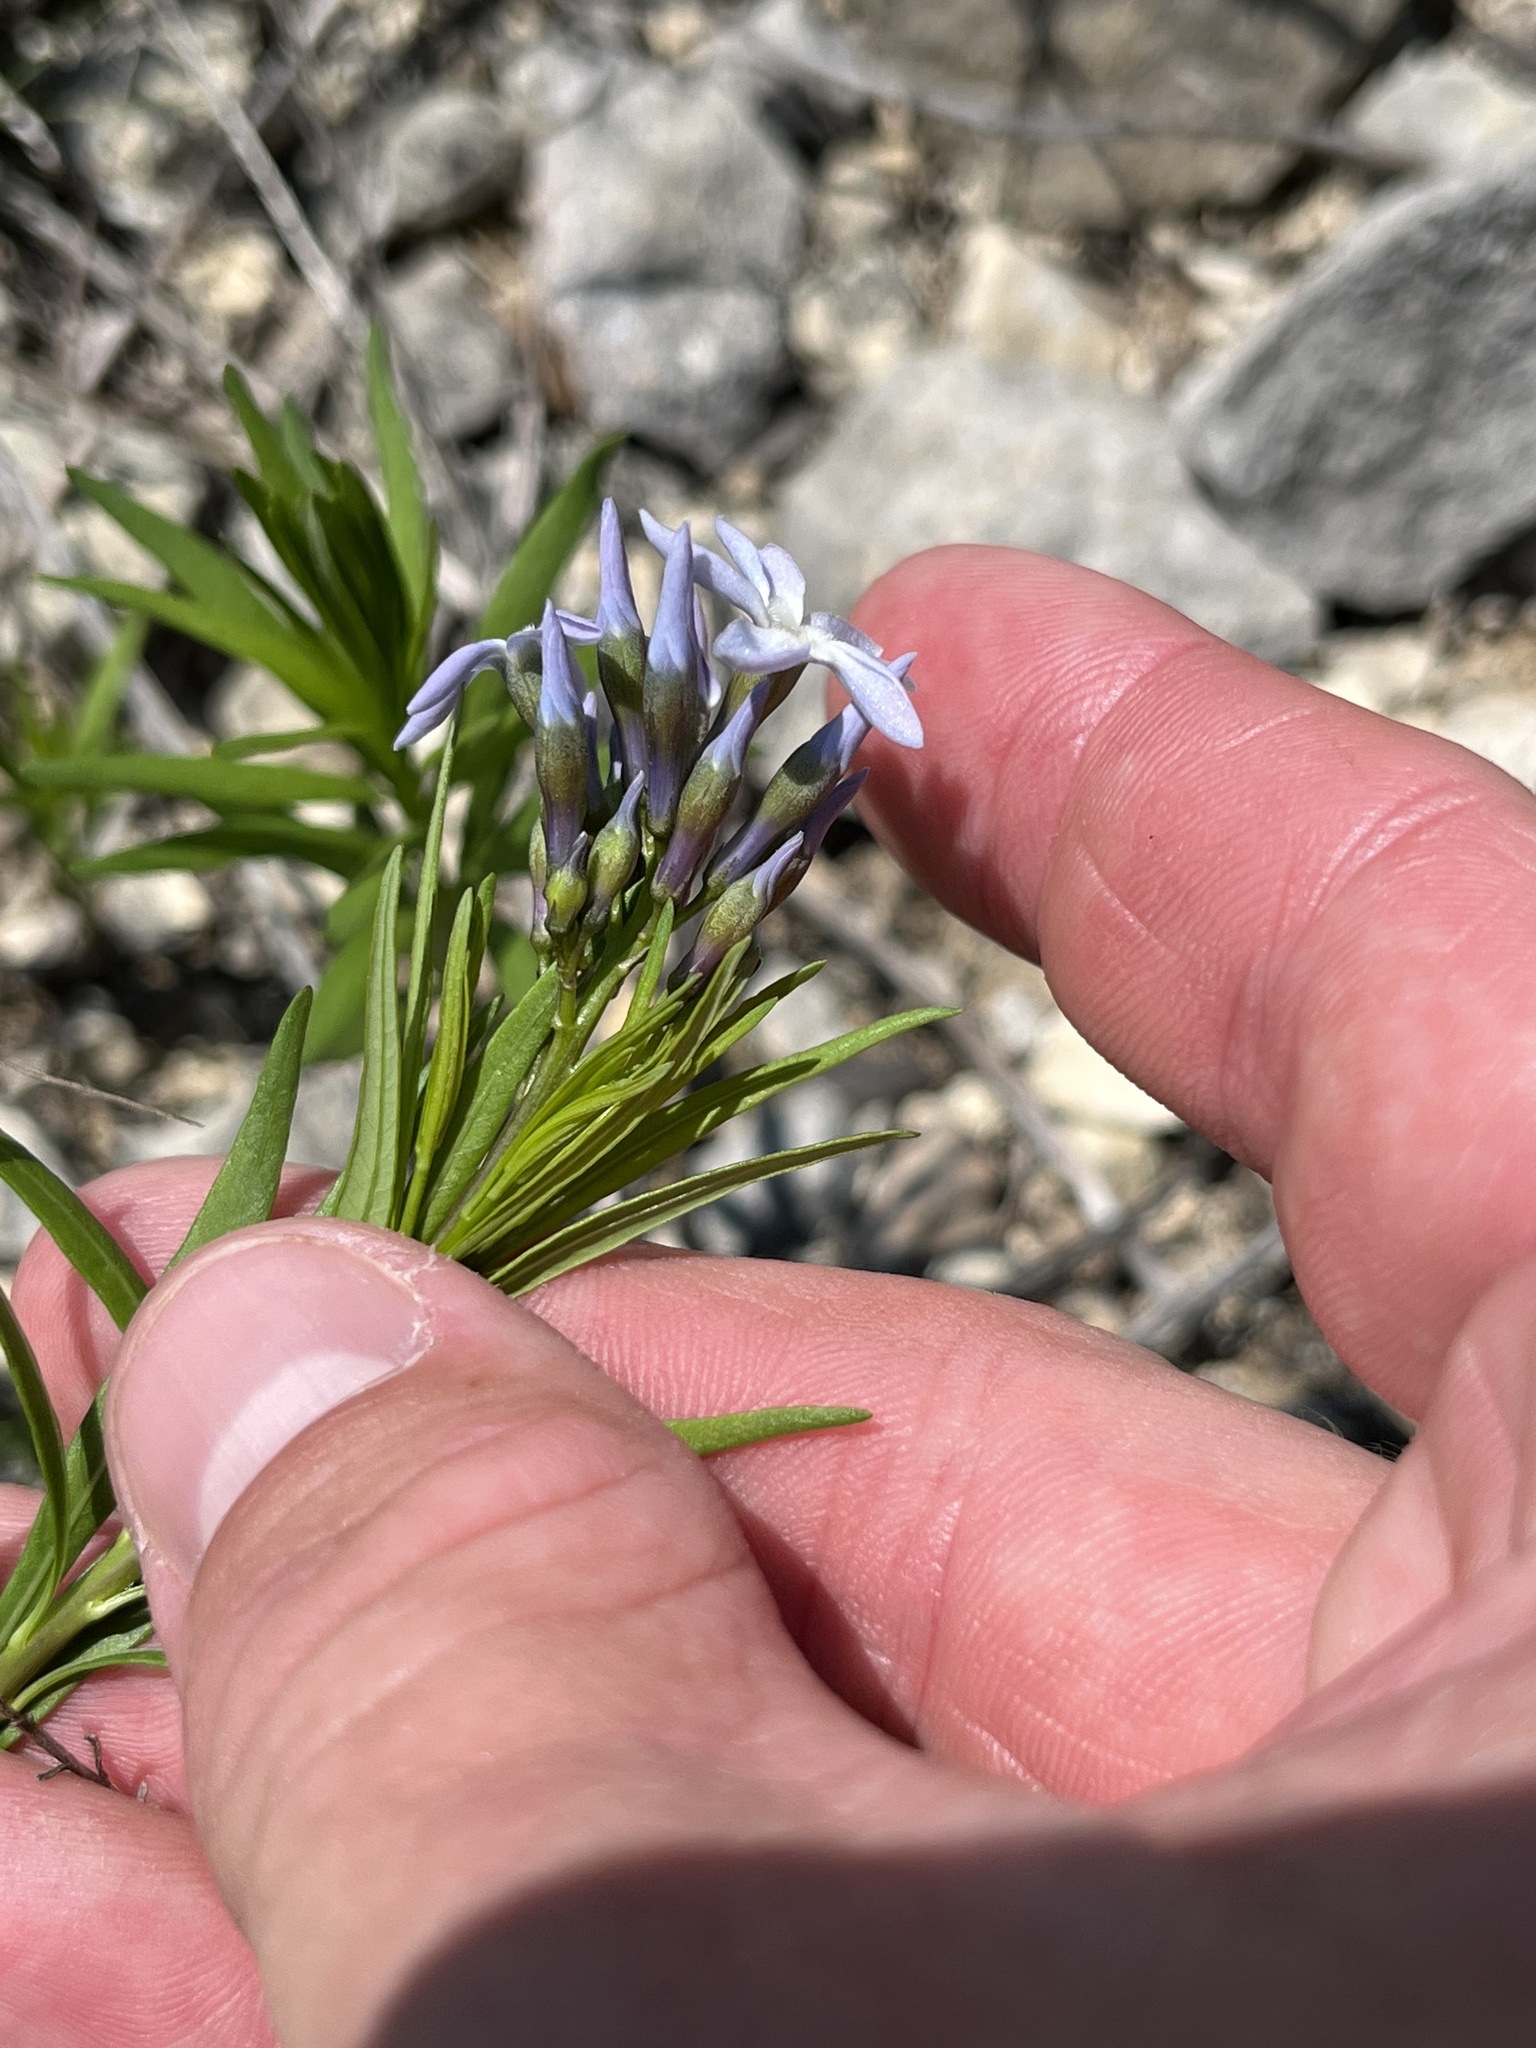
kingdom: Plantae
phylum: Tracheophyta
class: Magnoliopsida
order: Gentianales
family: Apocynaceae
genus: Amsonia
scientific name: Amsonia ciliata
